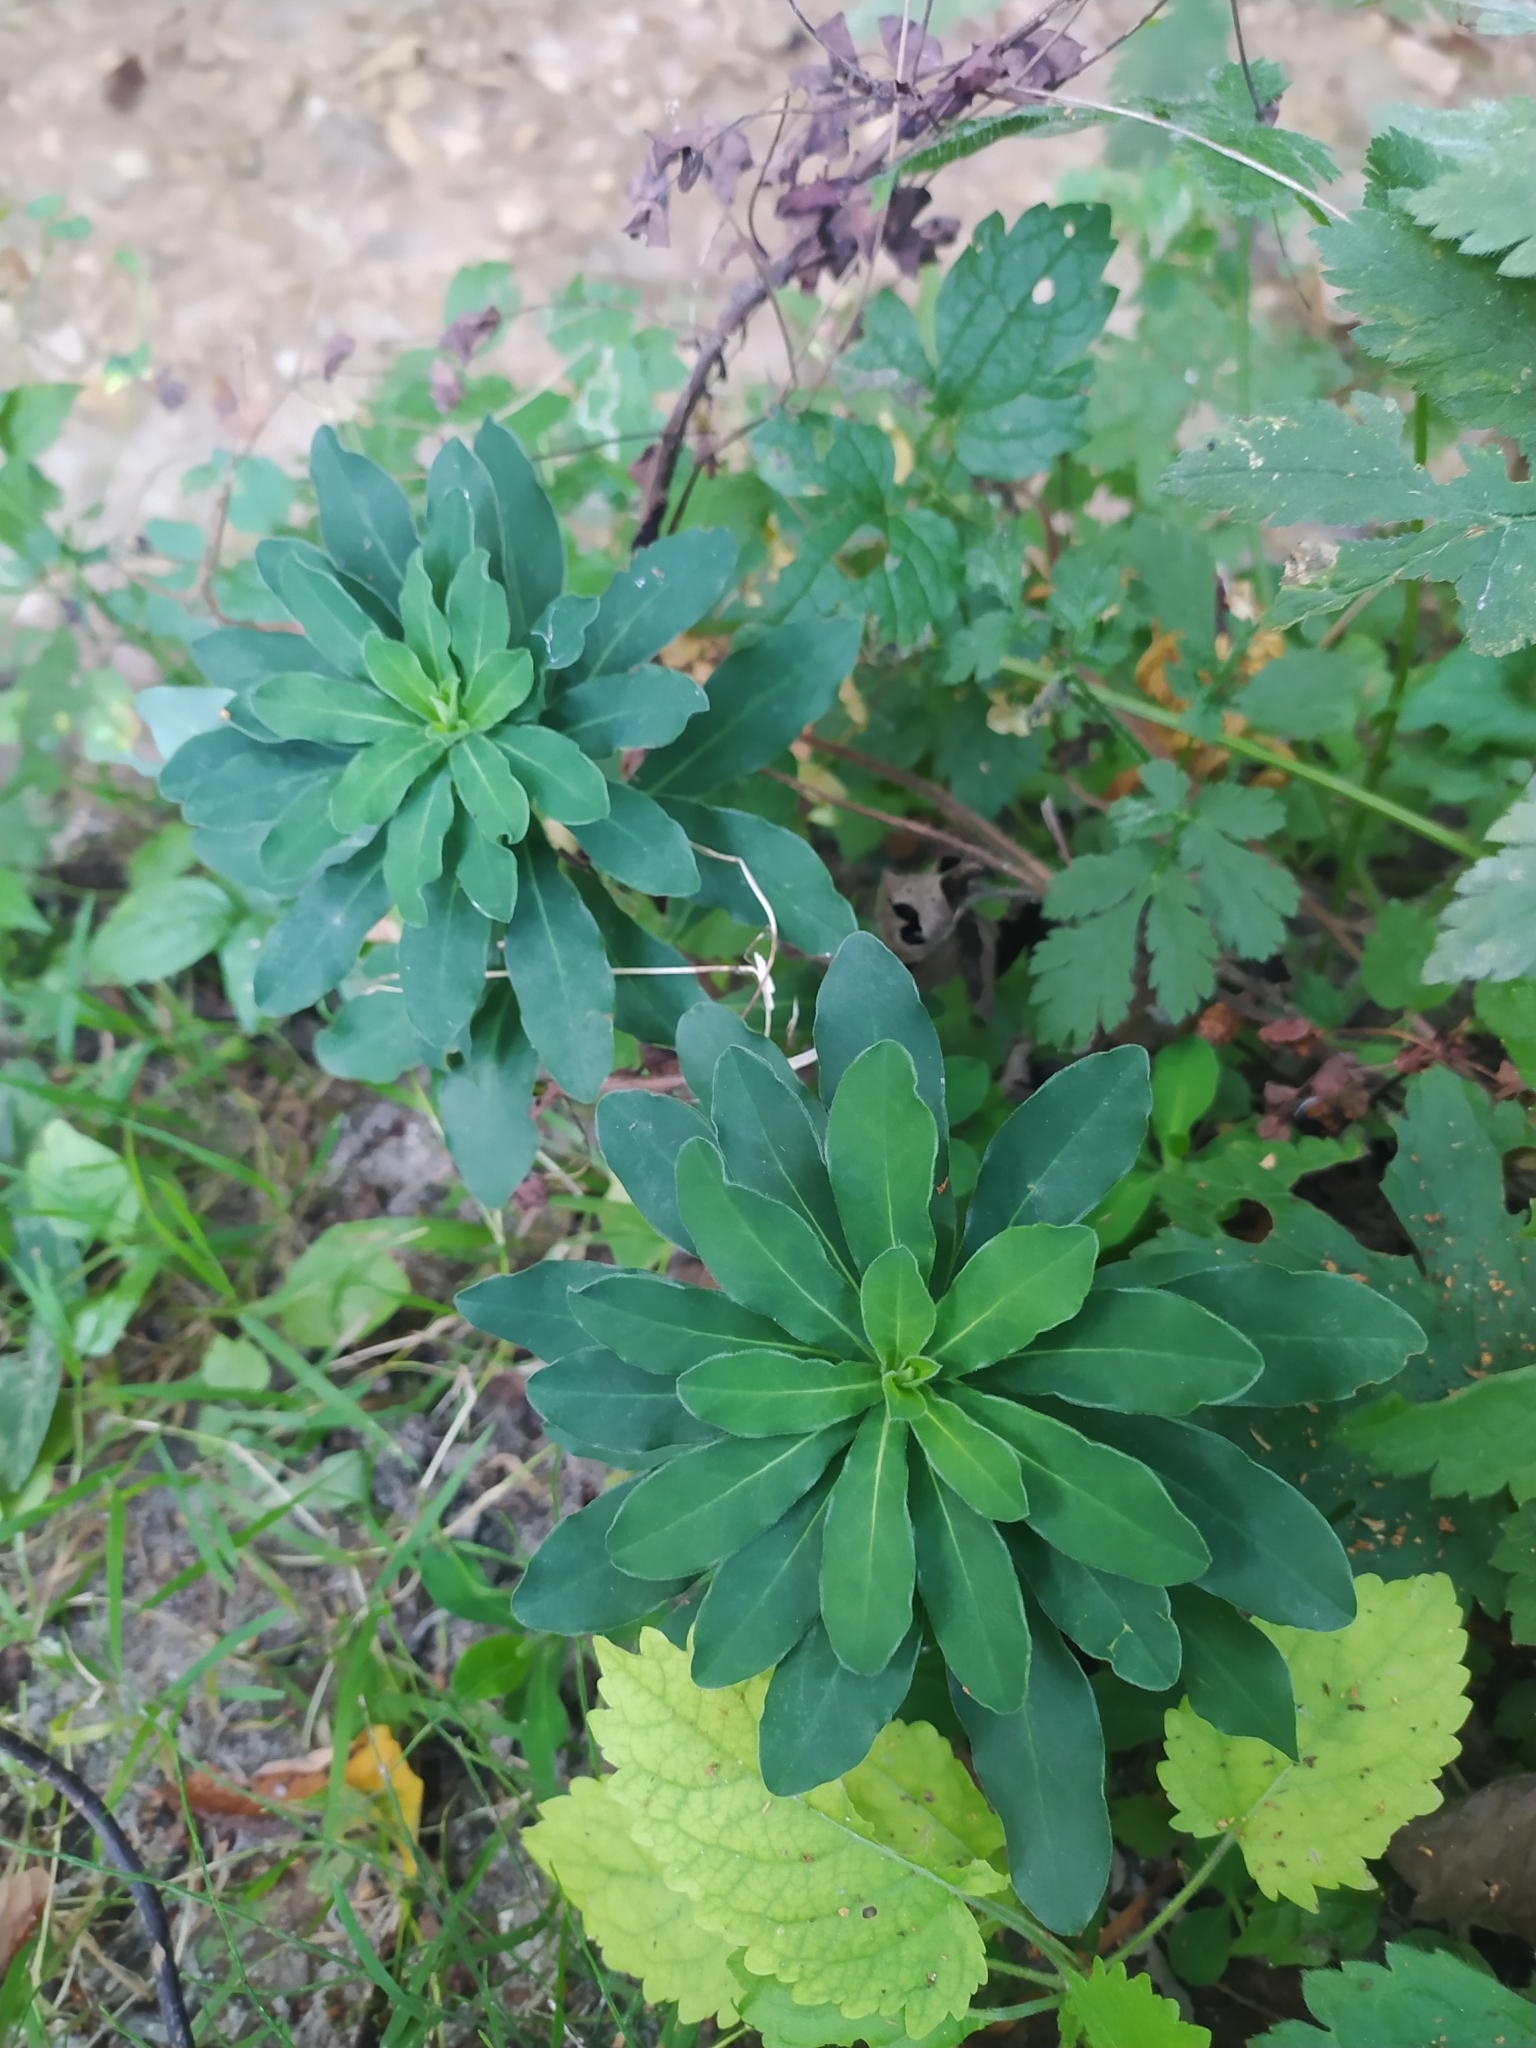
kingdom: Plantae
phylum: Tracheophyta
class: Magnoliopsida
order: Malpighiales
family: Euphorbiaceae
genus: Euphorbia
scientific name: Euphorbia amygdaloides
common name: Wood spurge
